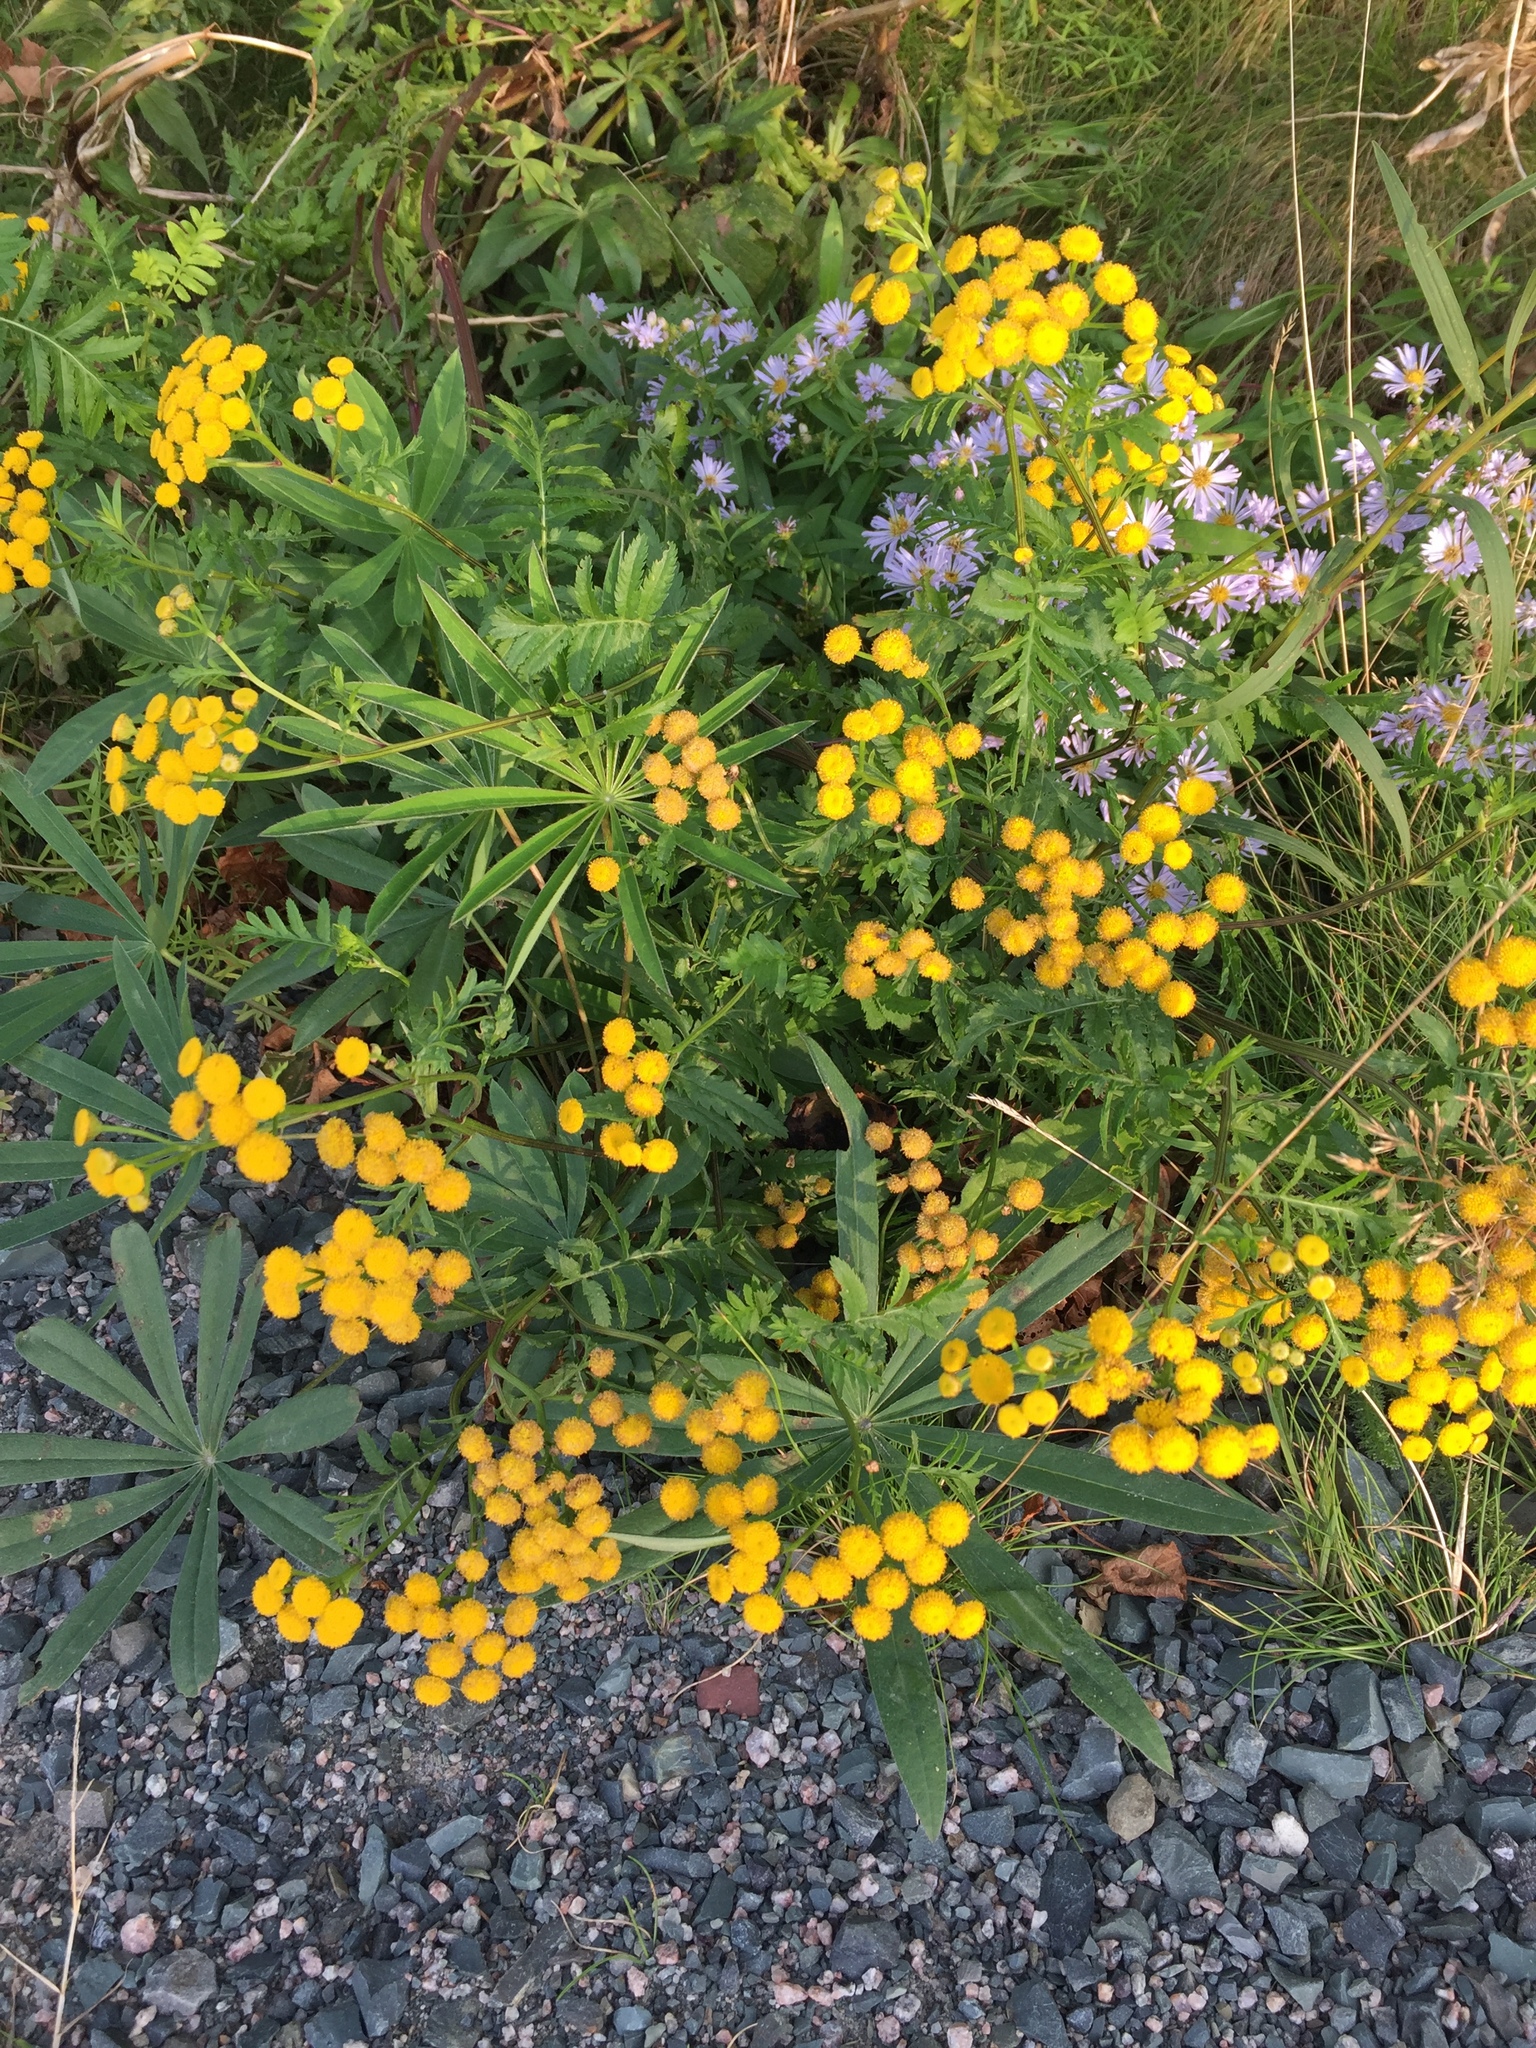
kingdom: Plantae
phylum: Tracheophyta
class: Magnoliopsida
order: Asterales
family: Asteraceae
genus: Tanacetum
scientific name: Tanacetum vulgare
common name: Common tansy
